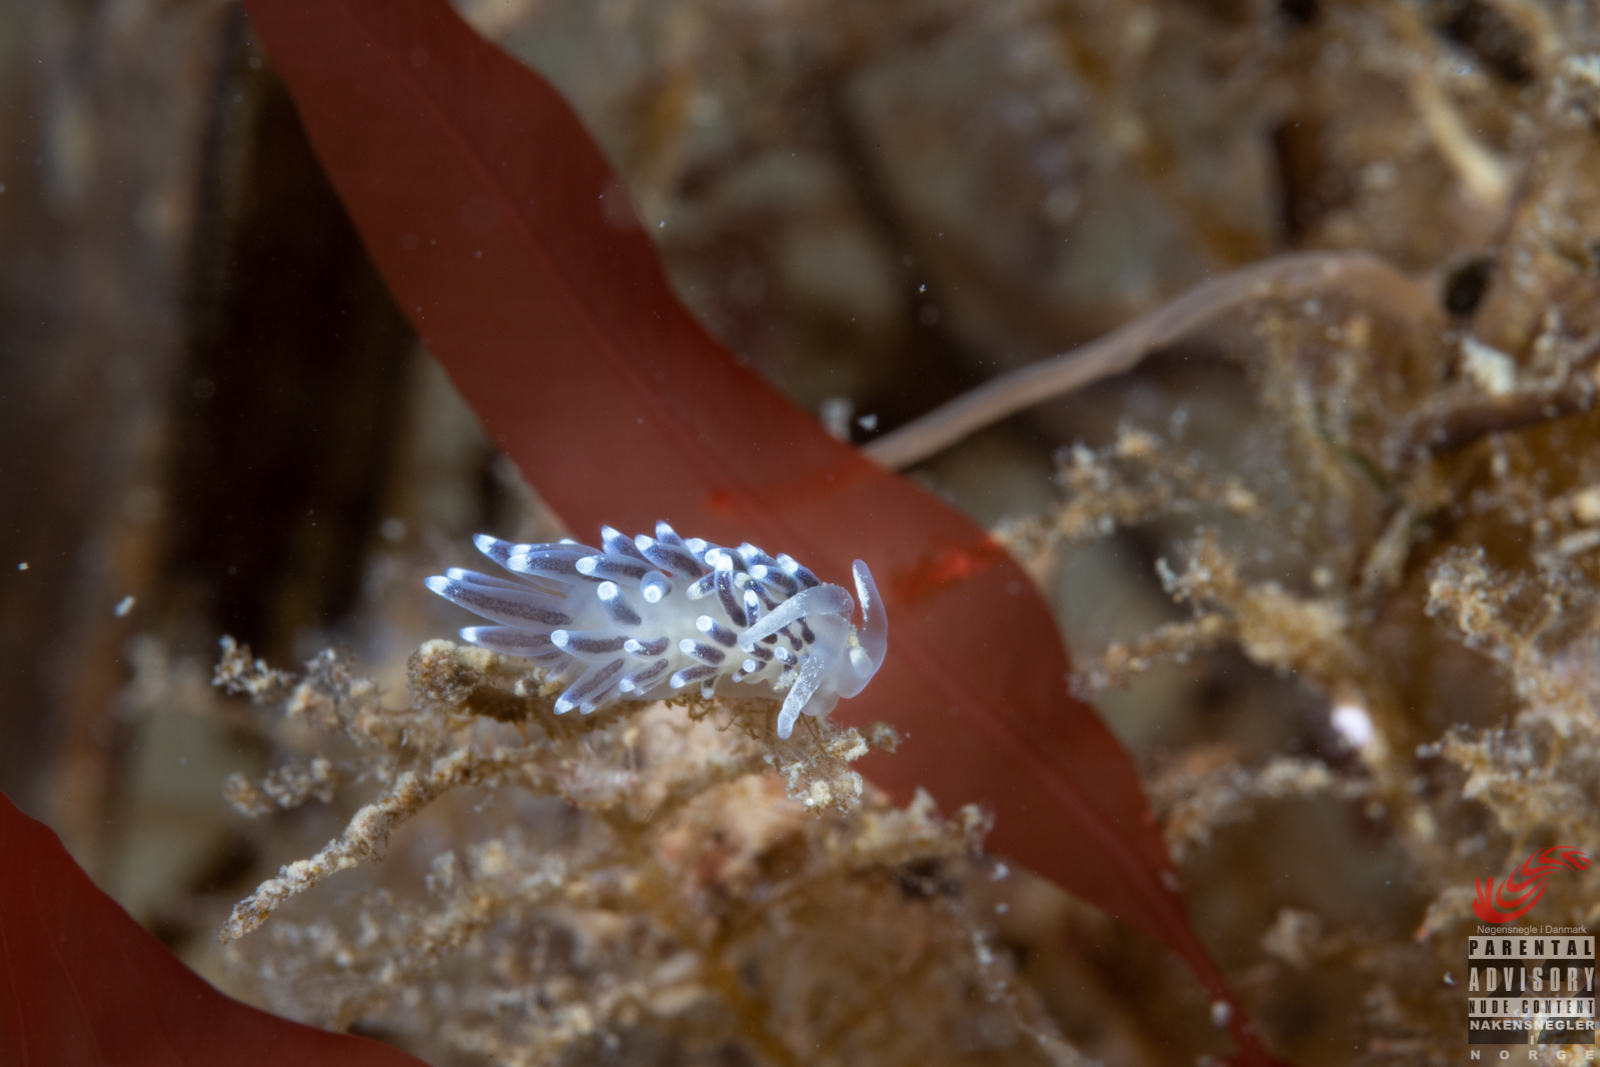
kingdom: Animalia
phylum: Mollusca
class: Gastropoda
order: Nudibranchia
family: Cuthonellidae
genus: Cuthonella
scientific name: Cuthonella concinna
